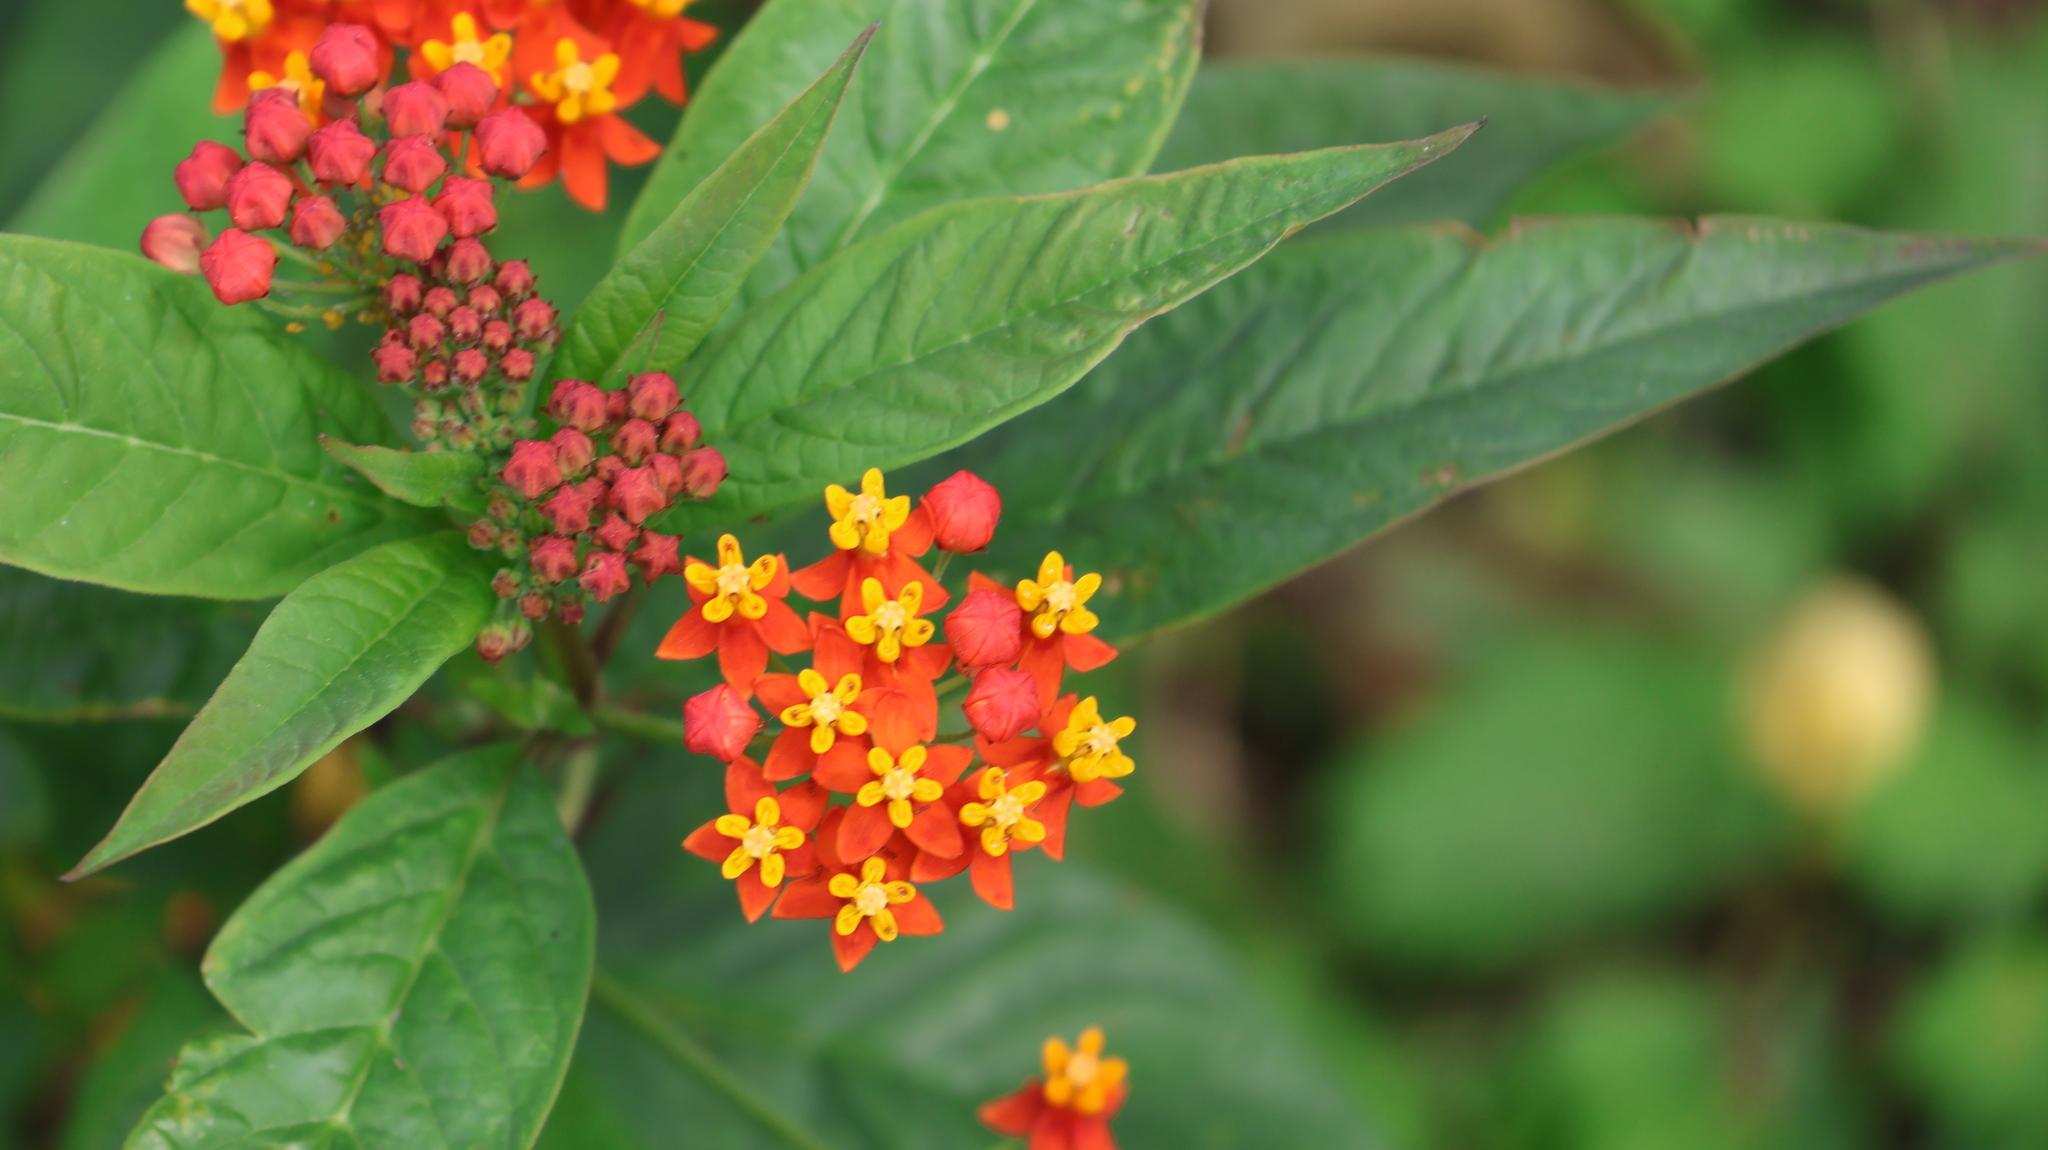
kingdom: Plantae
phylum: Tracheophyta
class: Magnoliopsida
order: Gentianales
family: Apocynaceae
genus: Asclepias
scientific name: Asclepias curassavica
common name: Bloodflower
